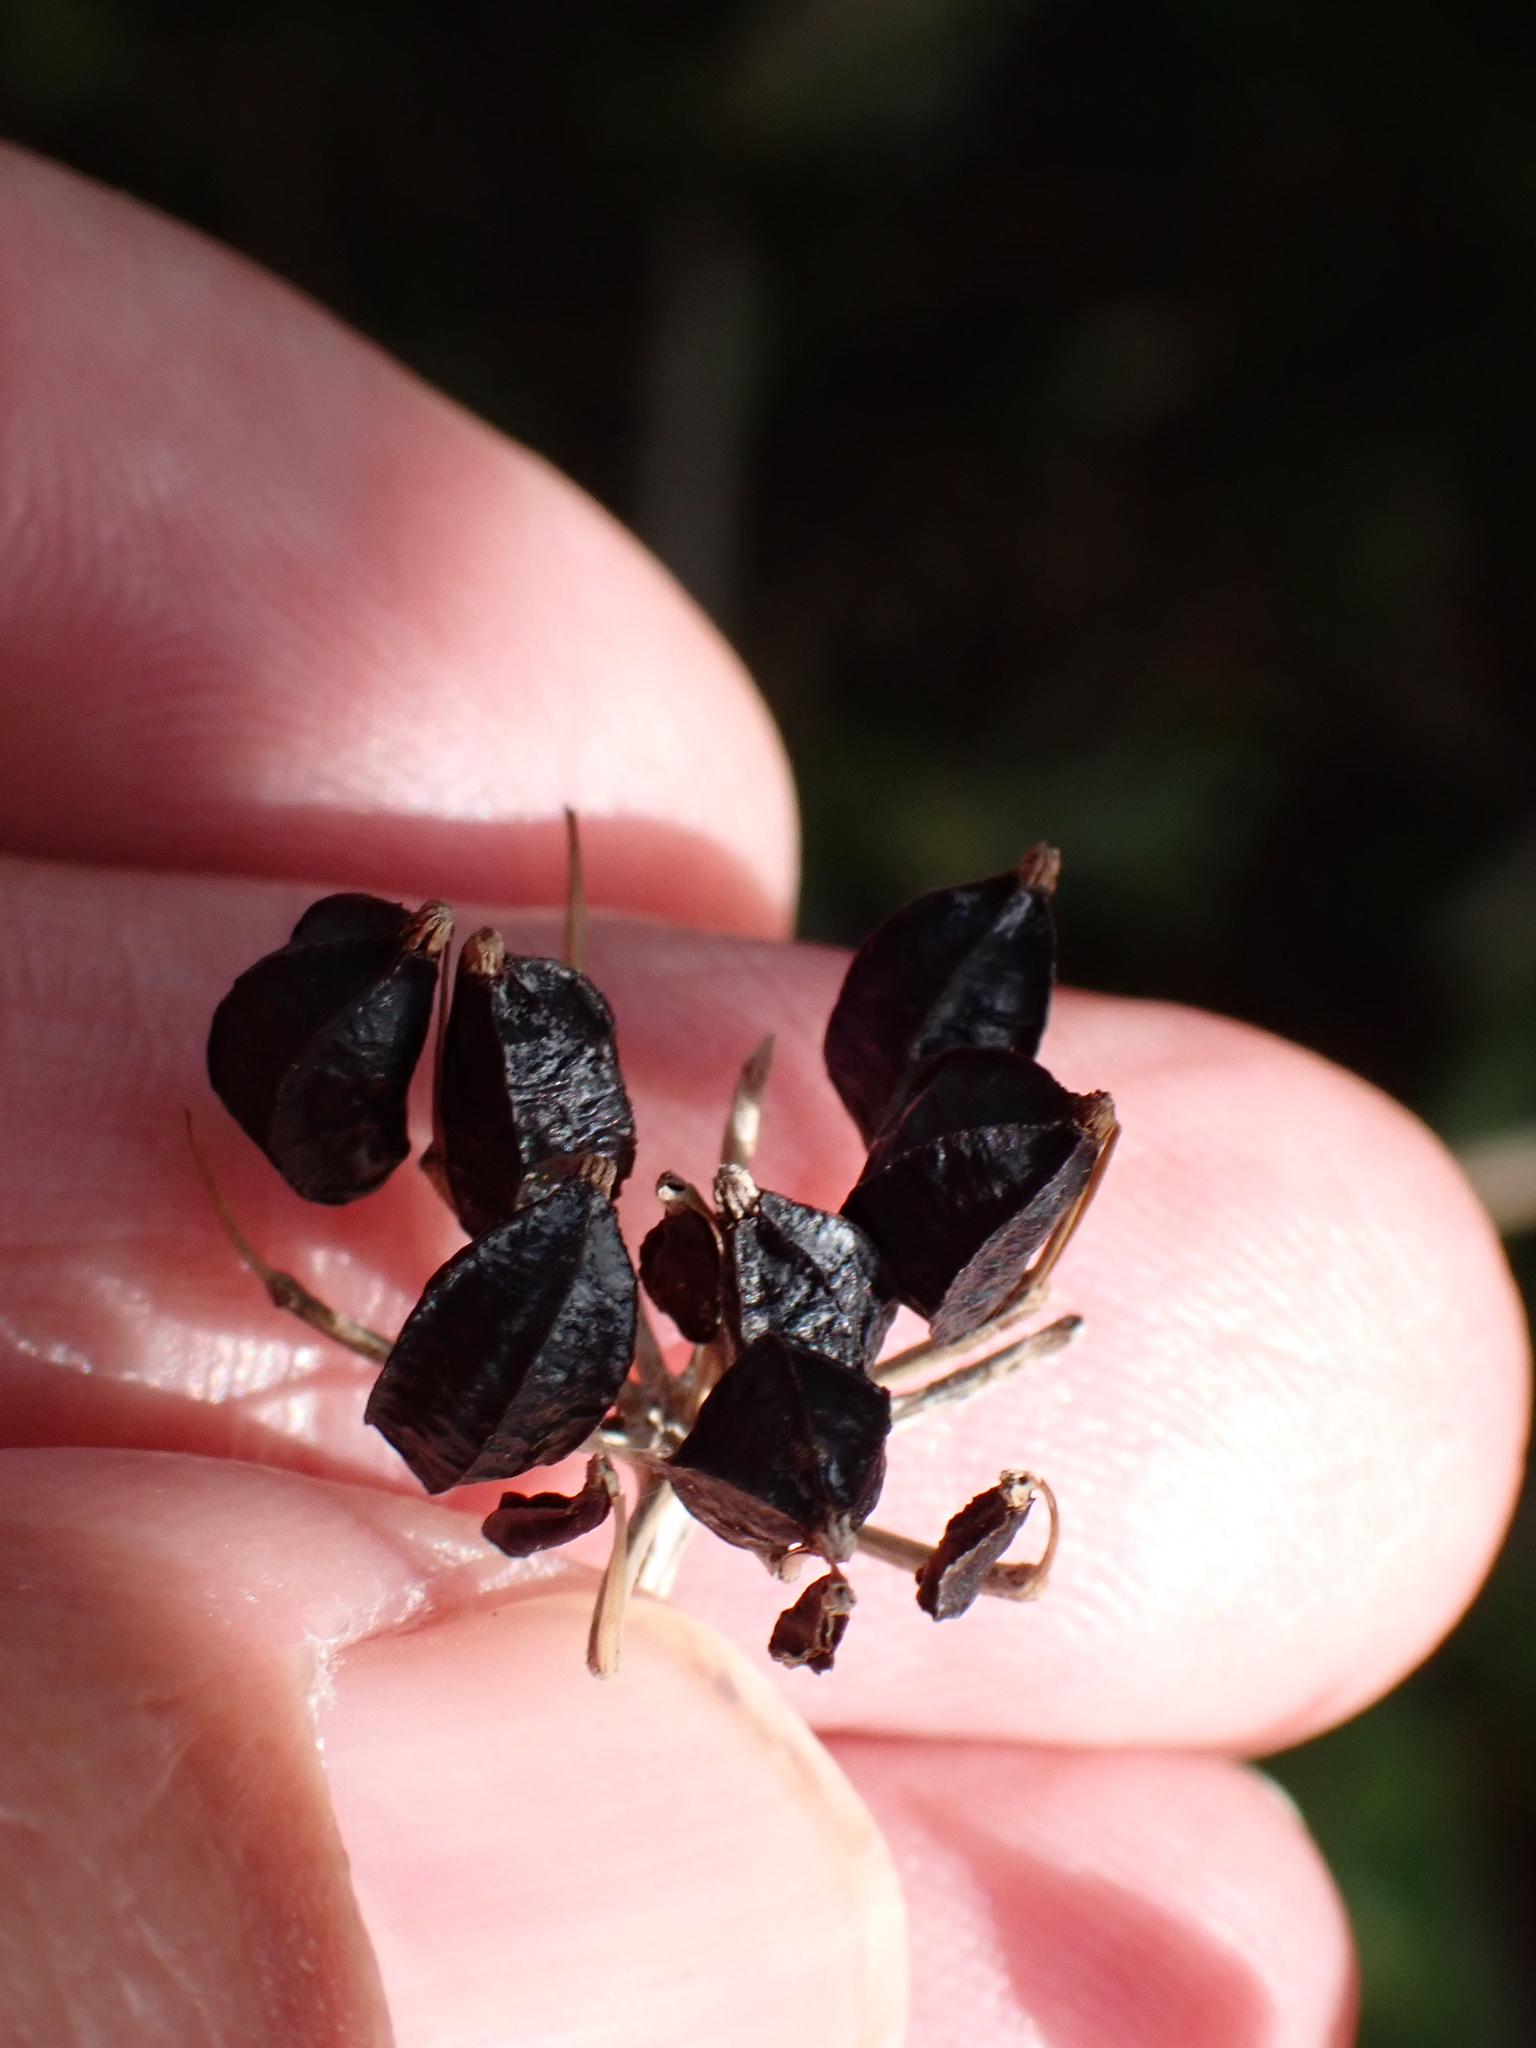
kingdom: Plantae
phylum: Tracheophyta
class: Magnoliopsida
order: Apiales
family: Apiaceae
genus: Smyrnium
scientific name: Smyrnium olusatrum
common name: Alexanders
